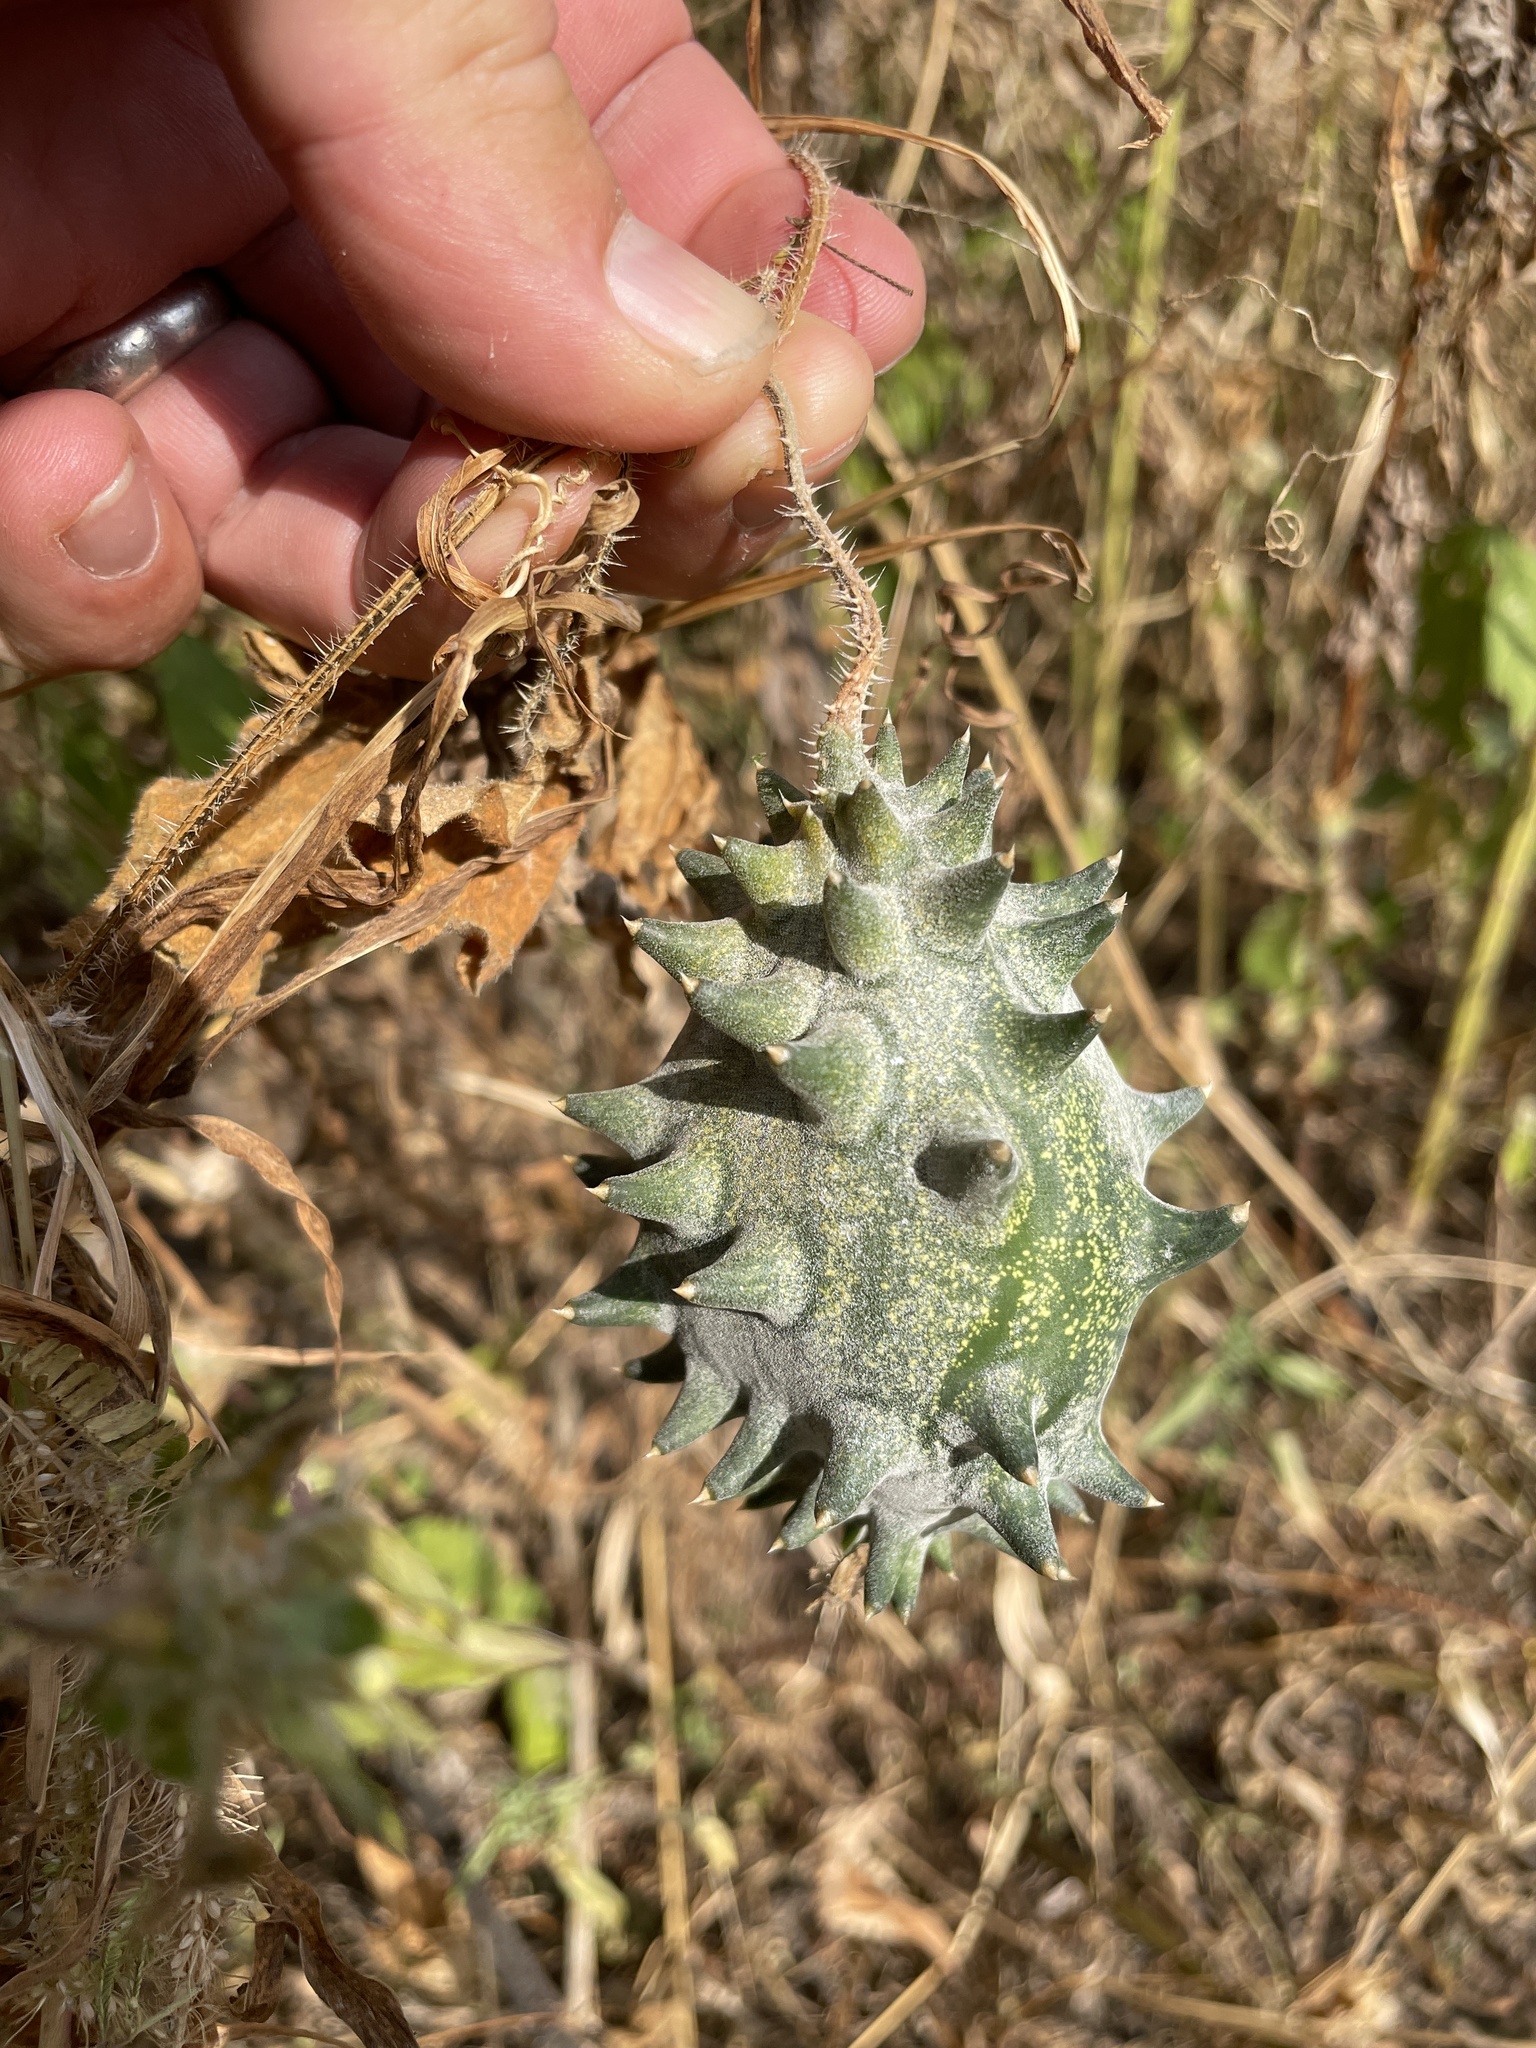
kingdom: Plantae
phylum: Tracheophyta
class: Magnoliopsida
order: Cucurbitales
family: Cucurbitaceae
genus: Cucumis
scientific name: Cucumis metuliferus
